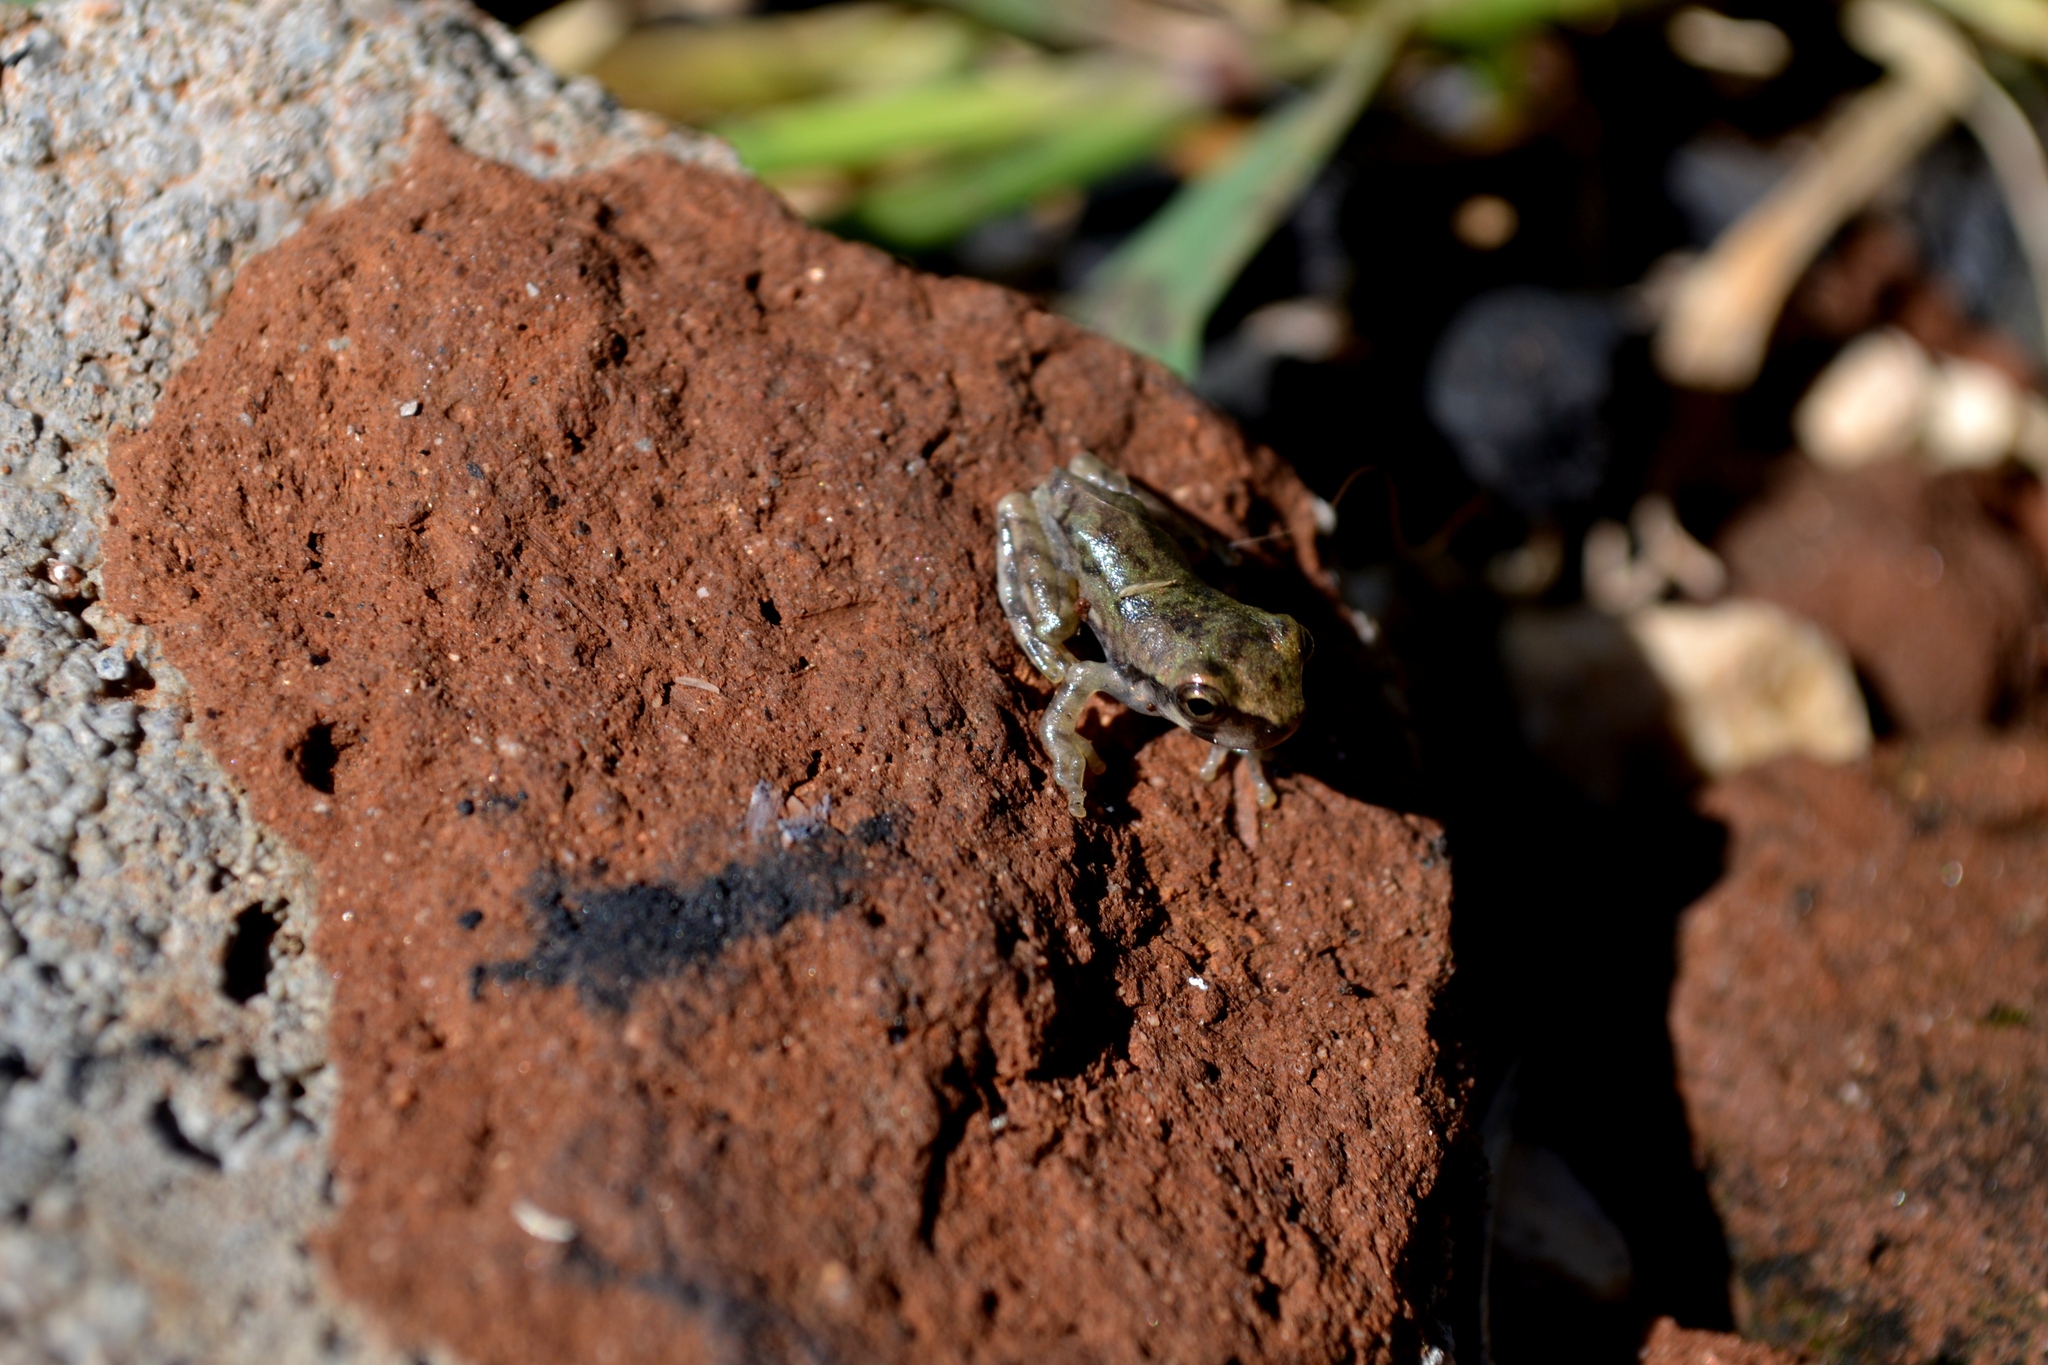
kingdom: Animalia
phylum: Chordata
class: Amphibia
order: Anura
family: Hylidae
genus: Plectrohyla
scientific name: Plectrohyla ixil
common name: Ixil spikethumb frog
